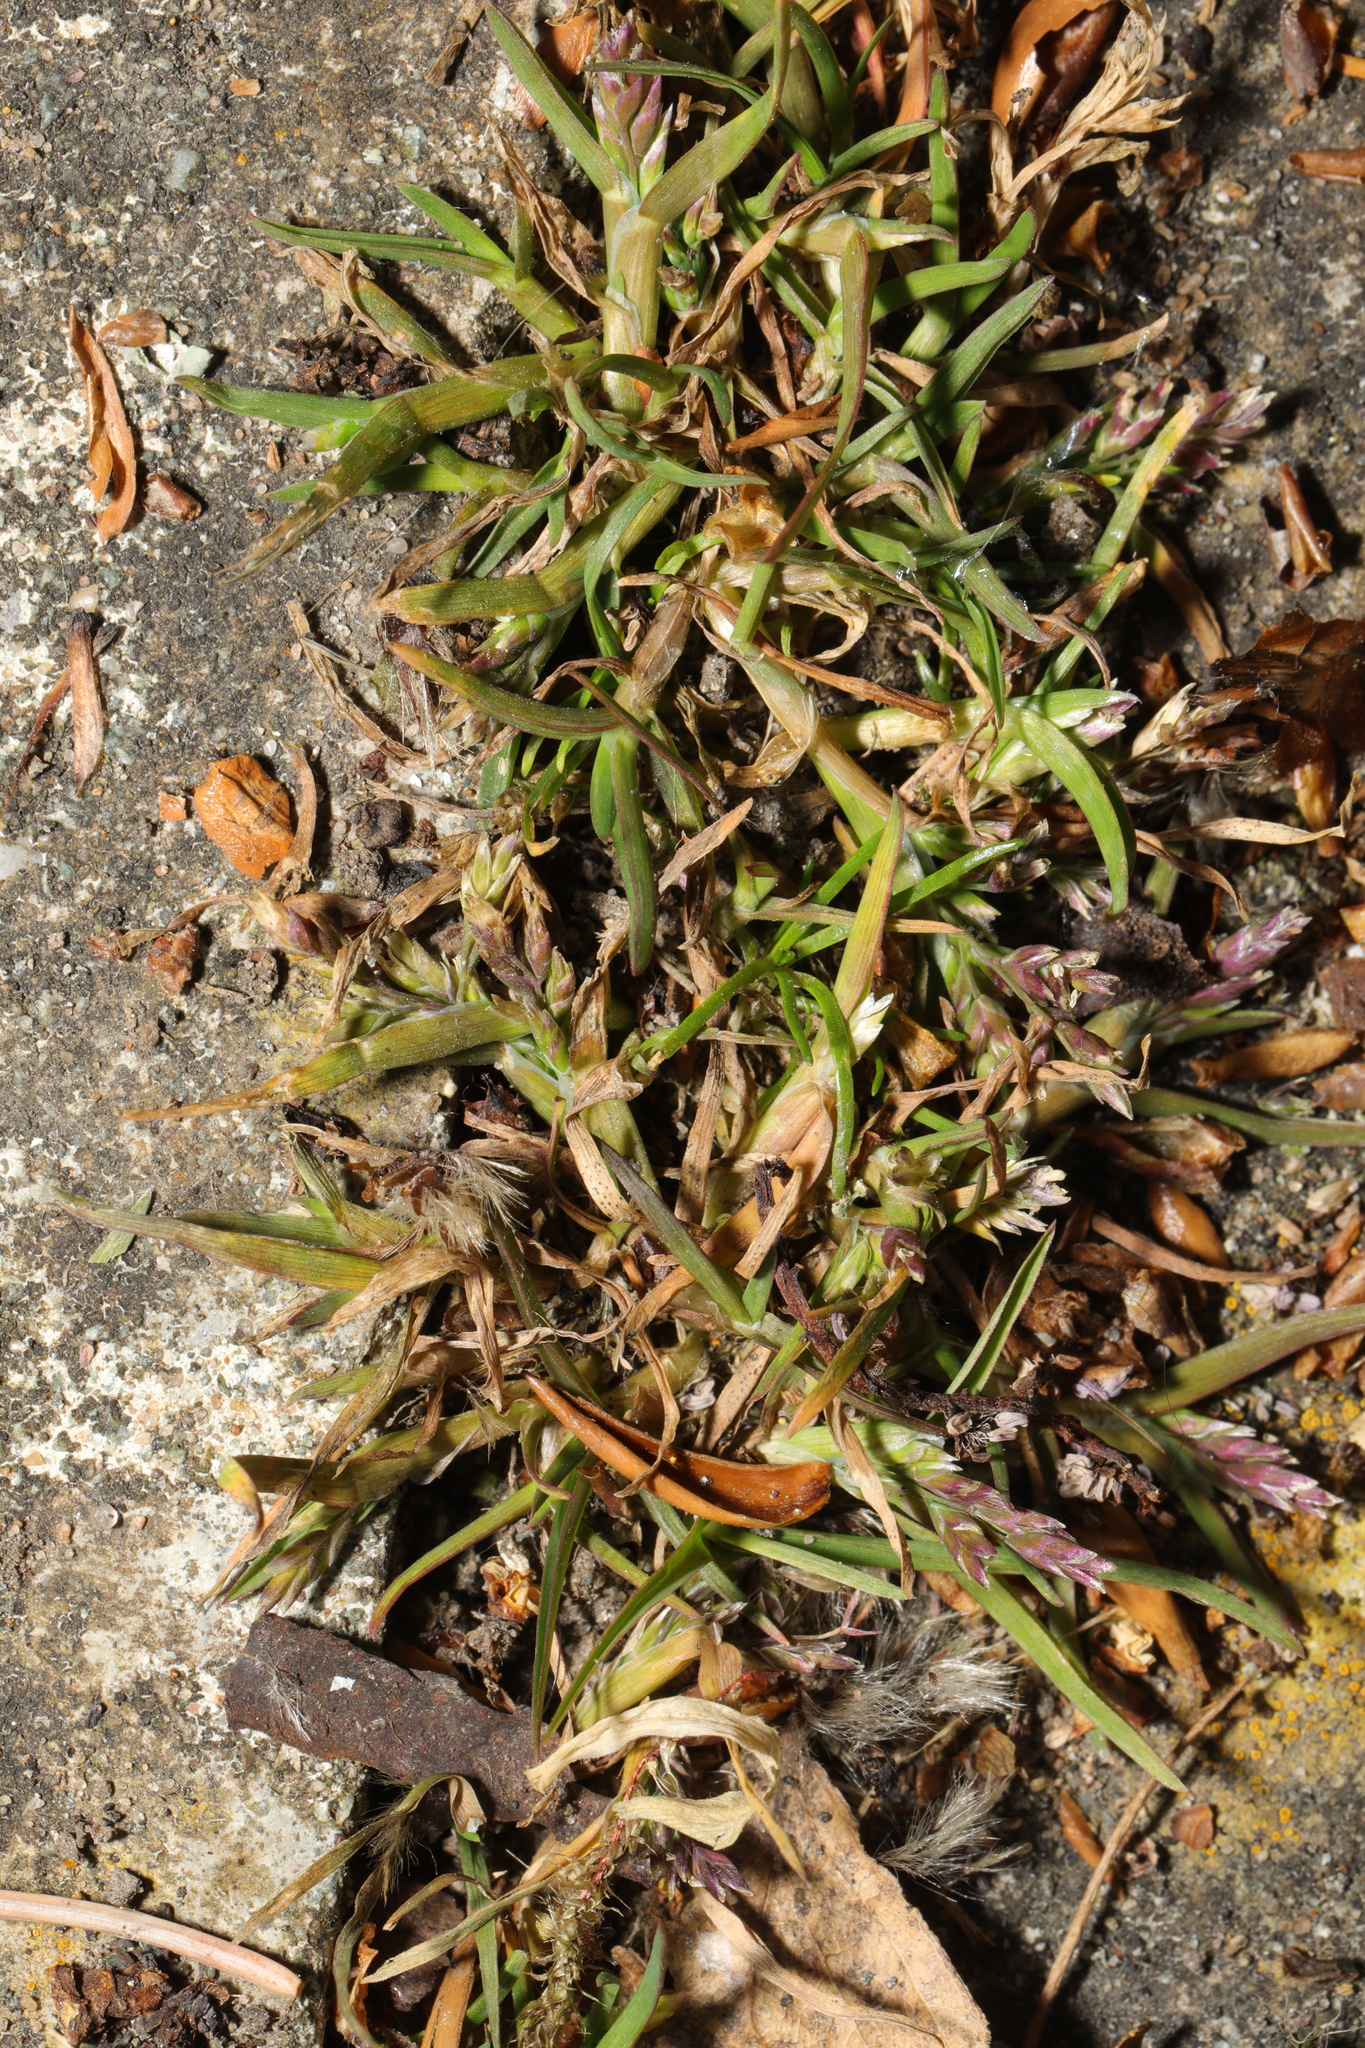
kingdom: Plantae
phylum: Tracheophyta
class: Liliopsida
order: Poales
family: Poaceae
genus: Poa
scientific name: Poa annua
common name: Annual bluegrass
